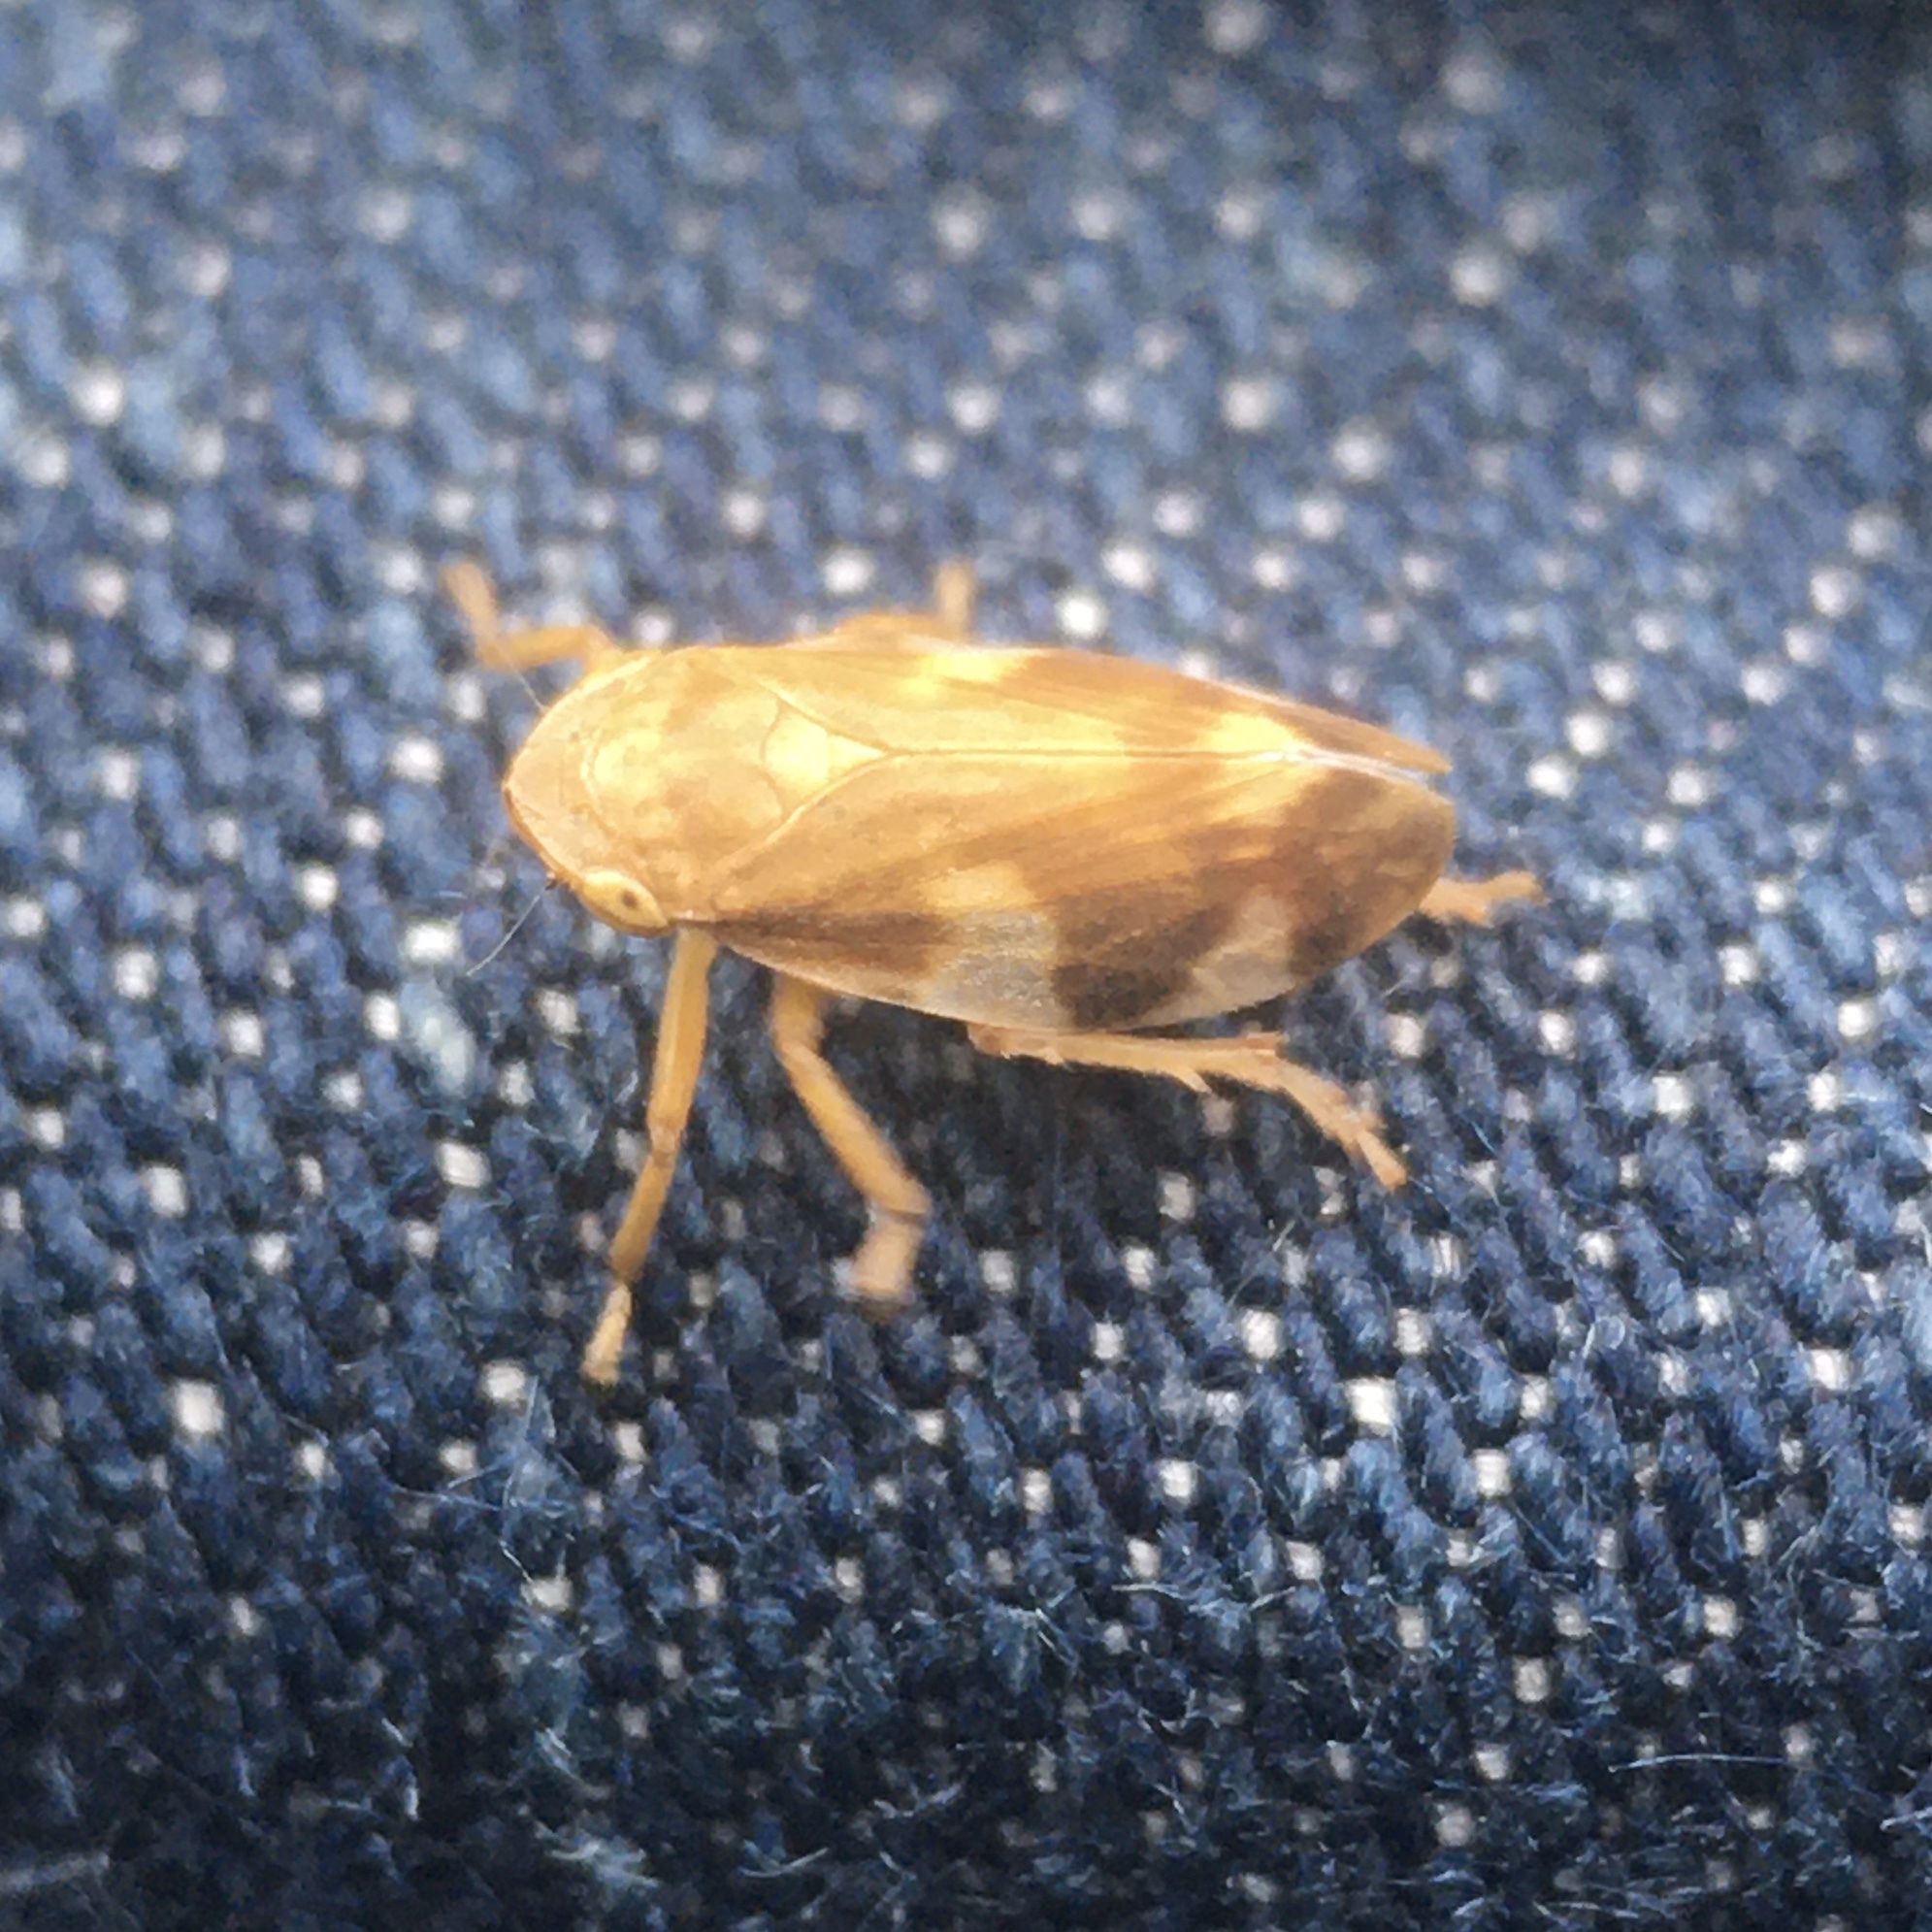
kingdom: Animalia
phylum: Arthropoda
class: Insecta
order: Hemiptera
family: Aphrophoridae
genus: Philaenus
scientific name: Philaenus spumarius
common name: Meadow spittlebug
